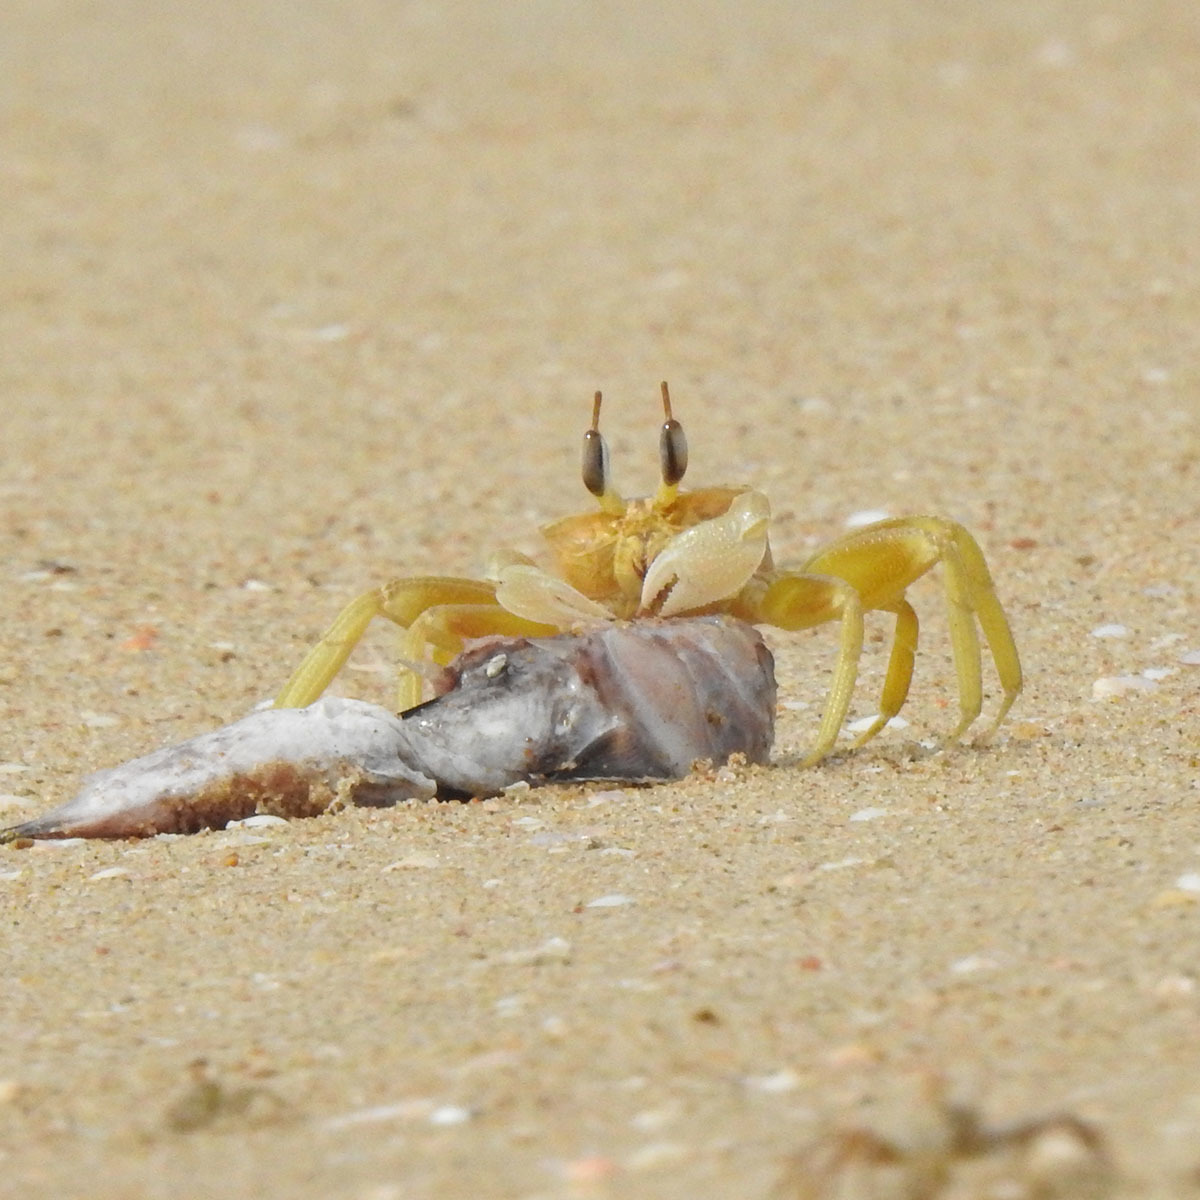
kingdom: Animalia
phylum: Arthropoda
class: Malacostraca
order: Decapoda
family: Ocypodidae
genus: Ocypode
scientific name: Ocypode brevicornis
